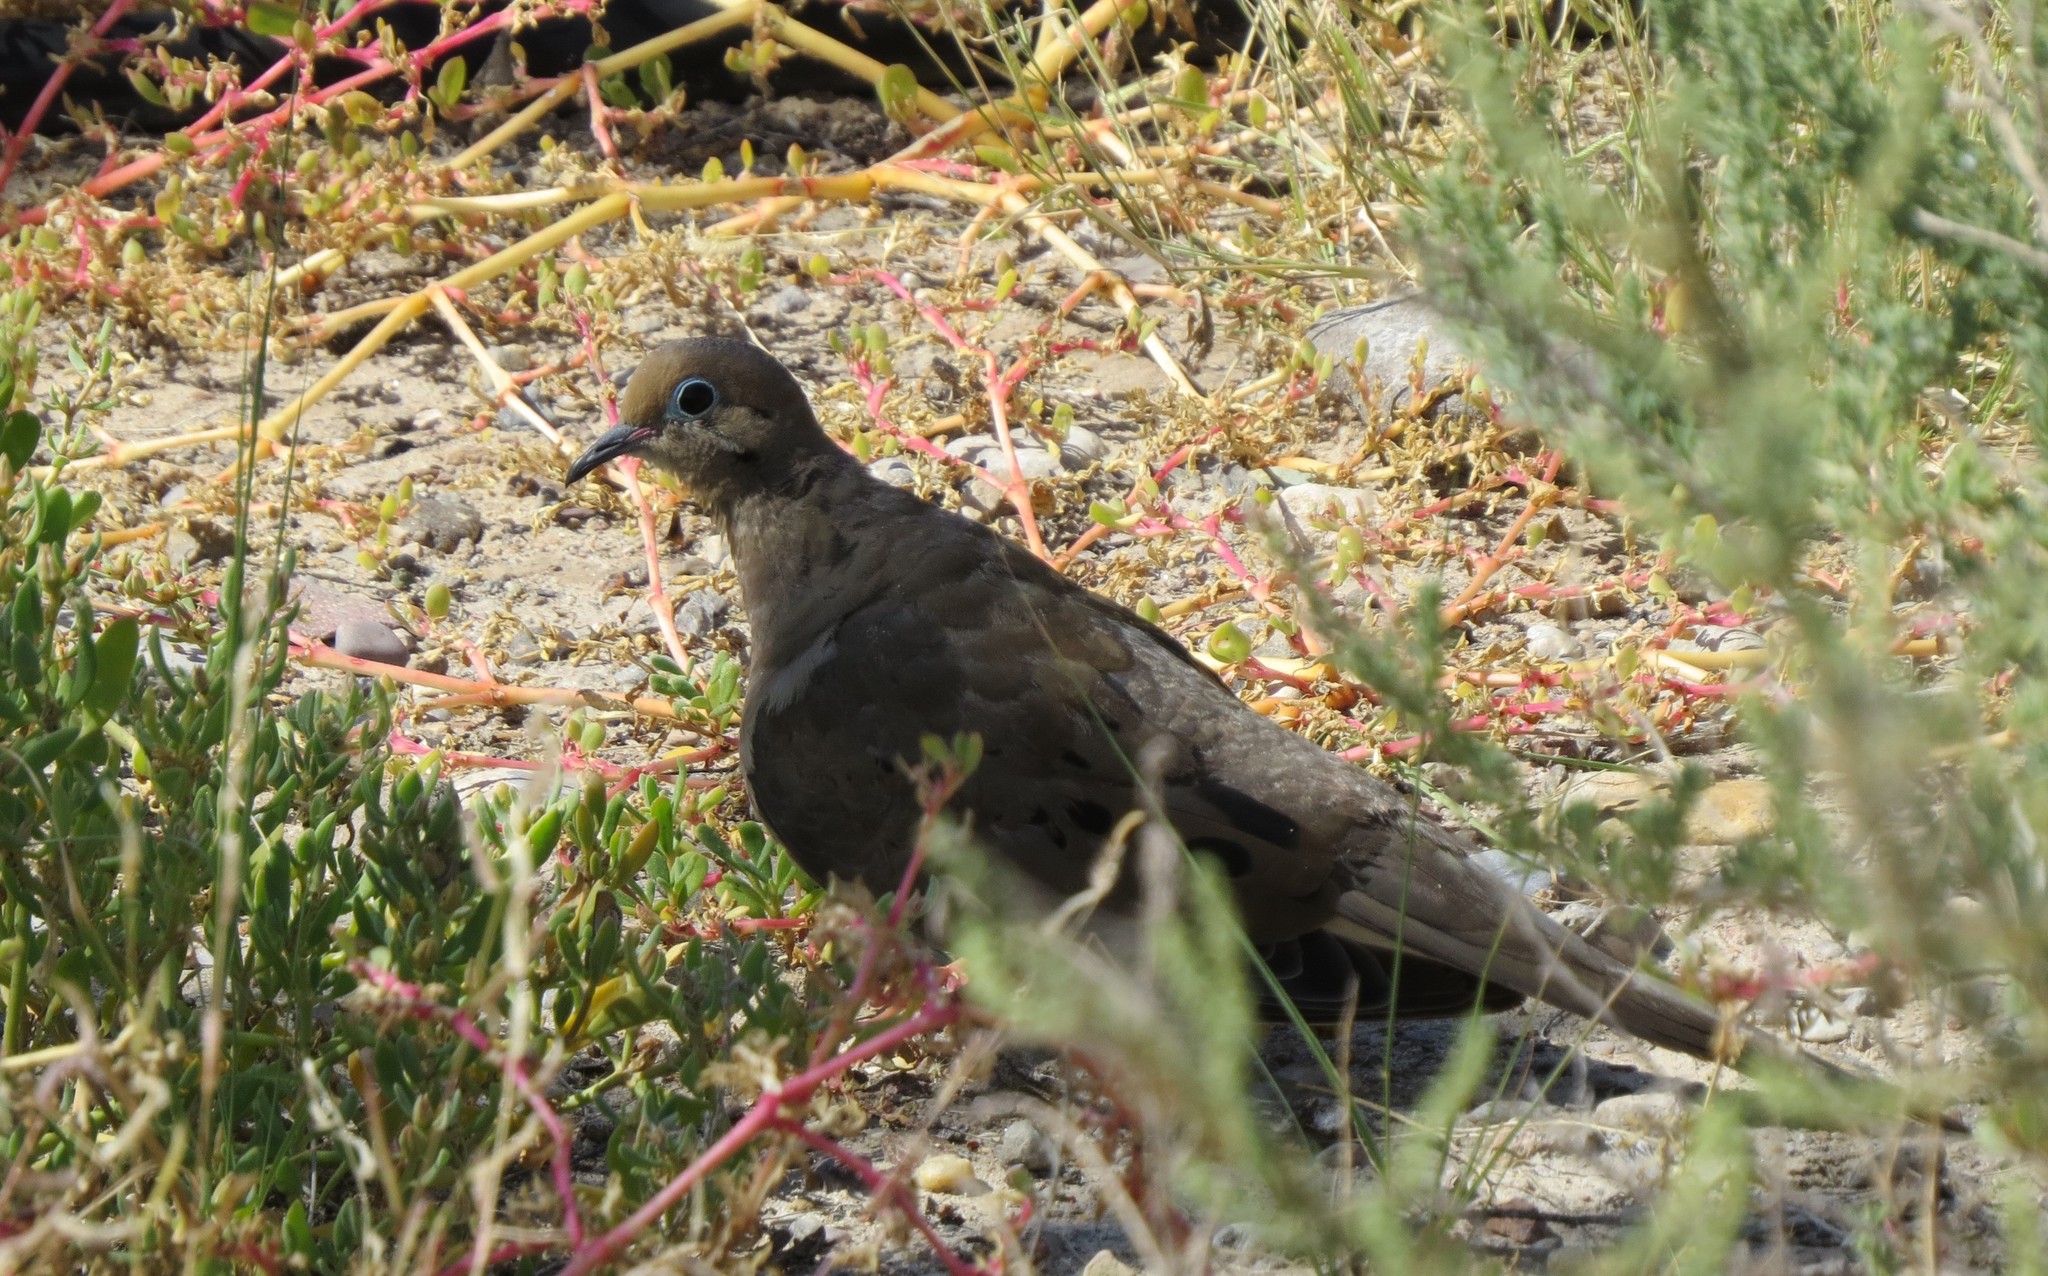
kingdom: Animalia
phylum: Chordata
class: Aves
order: Columbiformes
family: Columbidae
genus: Zenaida
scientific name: Zenaida macroura
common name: Mourning dove
